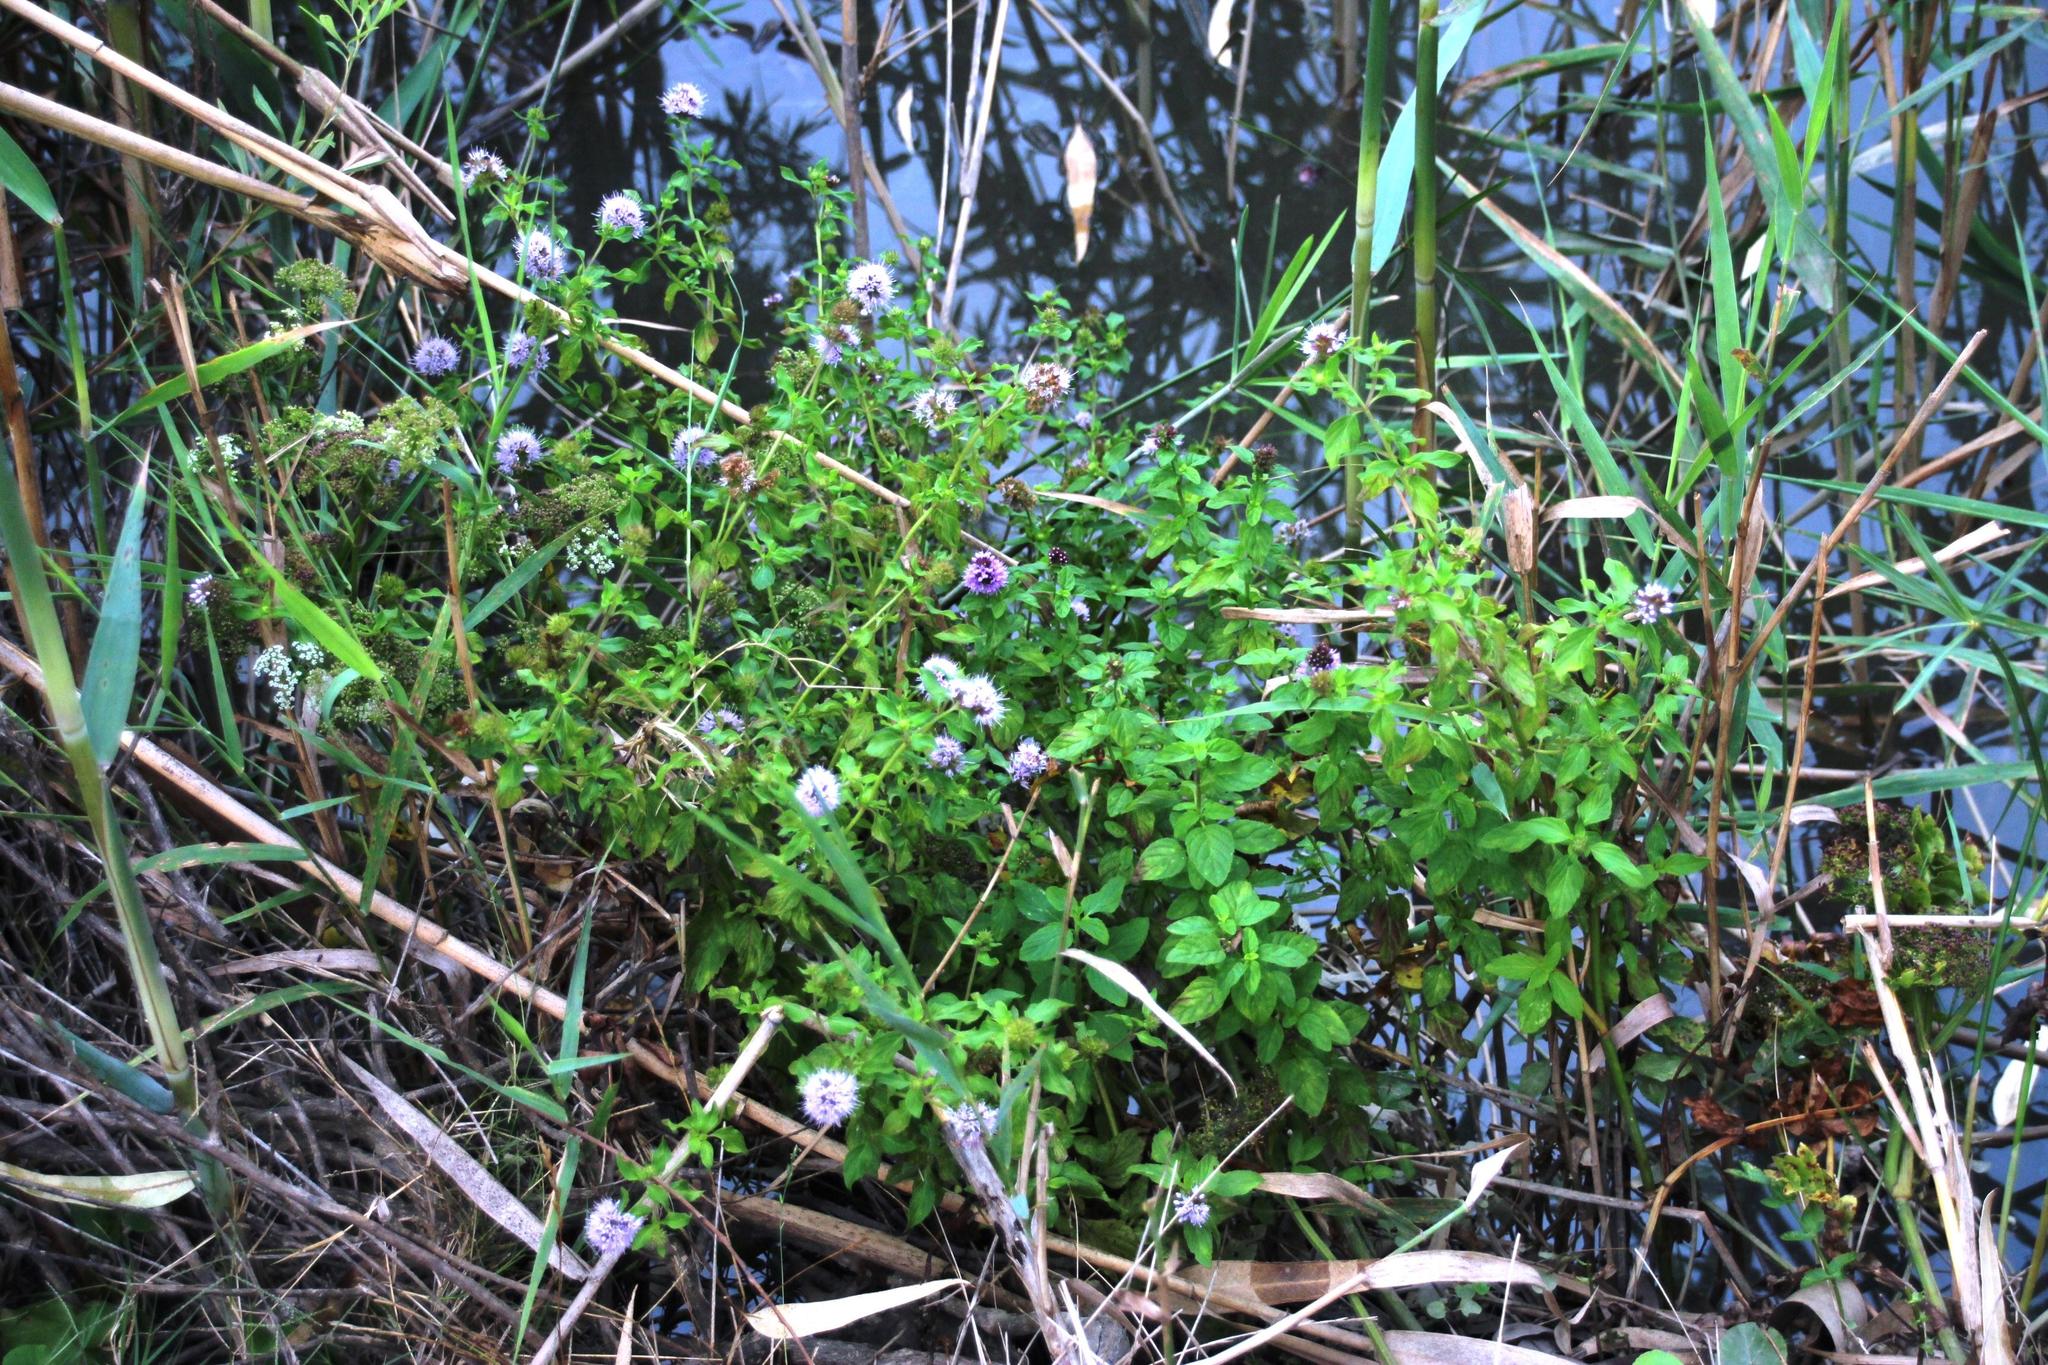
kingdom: Plantae
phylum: Tracheophyta
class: Magnoliopsida
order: Lamiales
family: Lamiaceae
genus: Mentha
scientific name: Mentha aquatica
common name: Water mint
